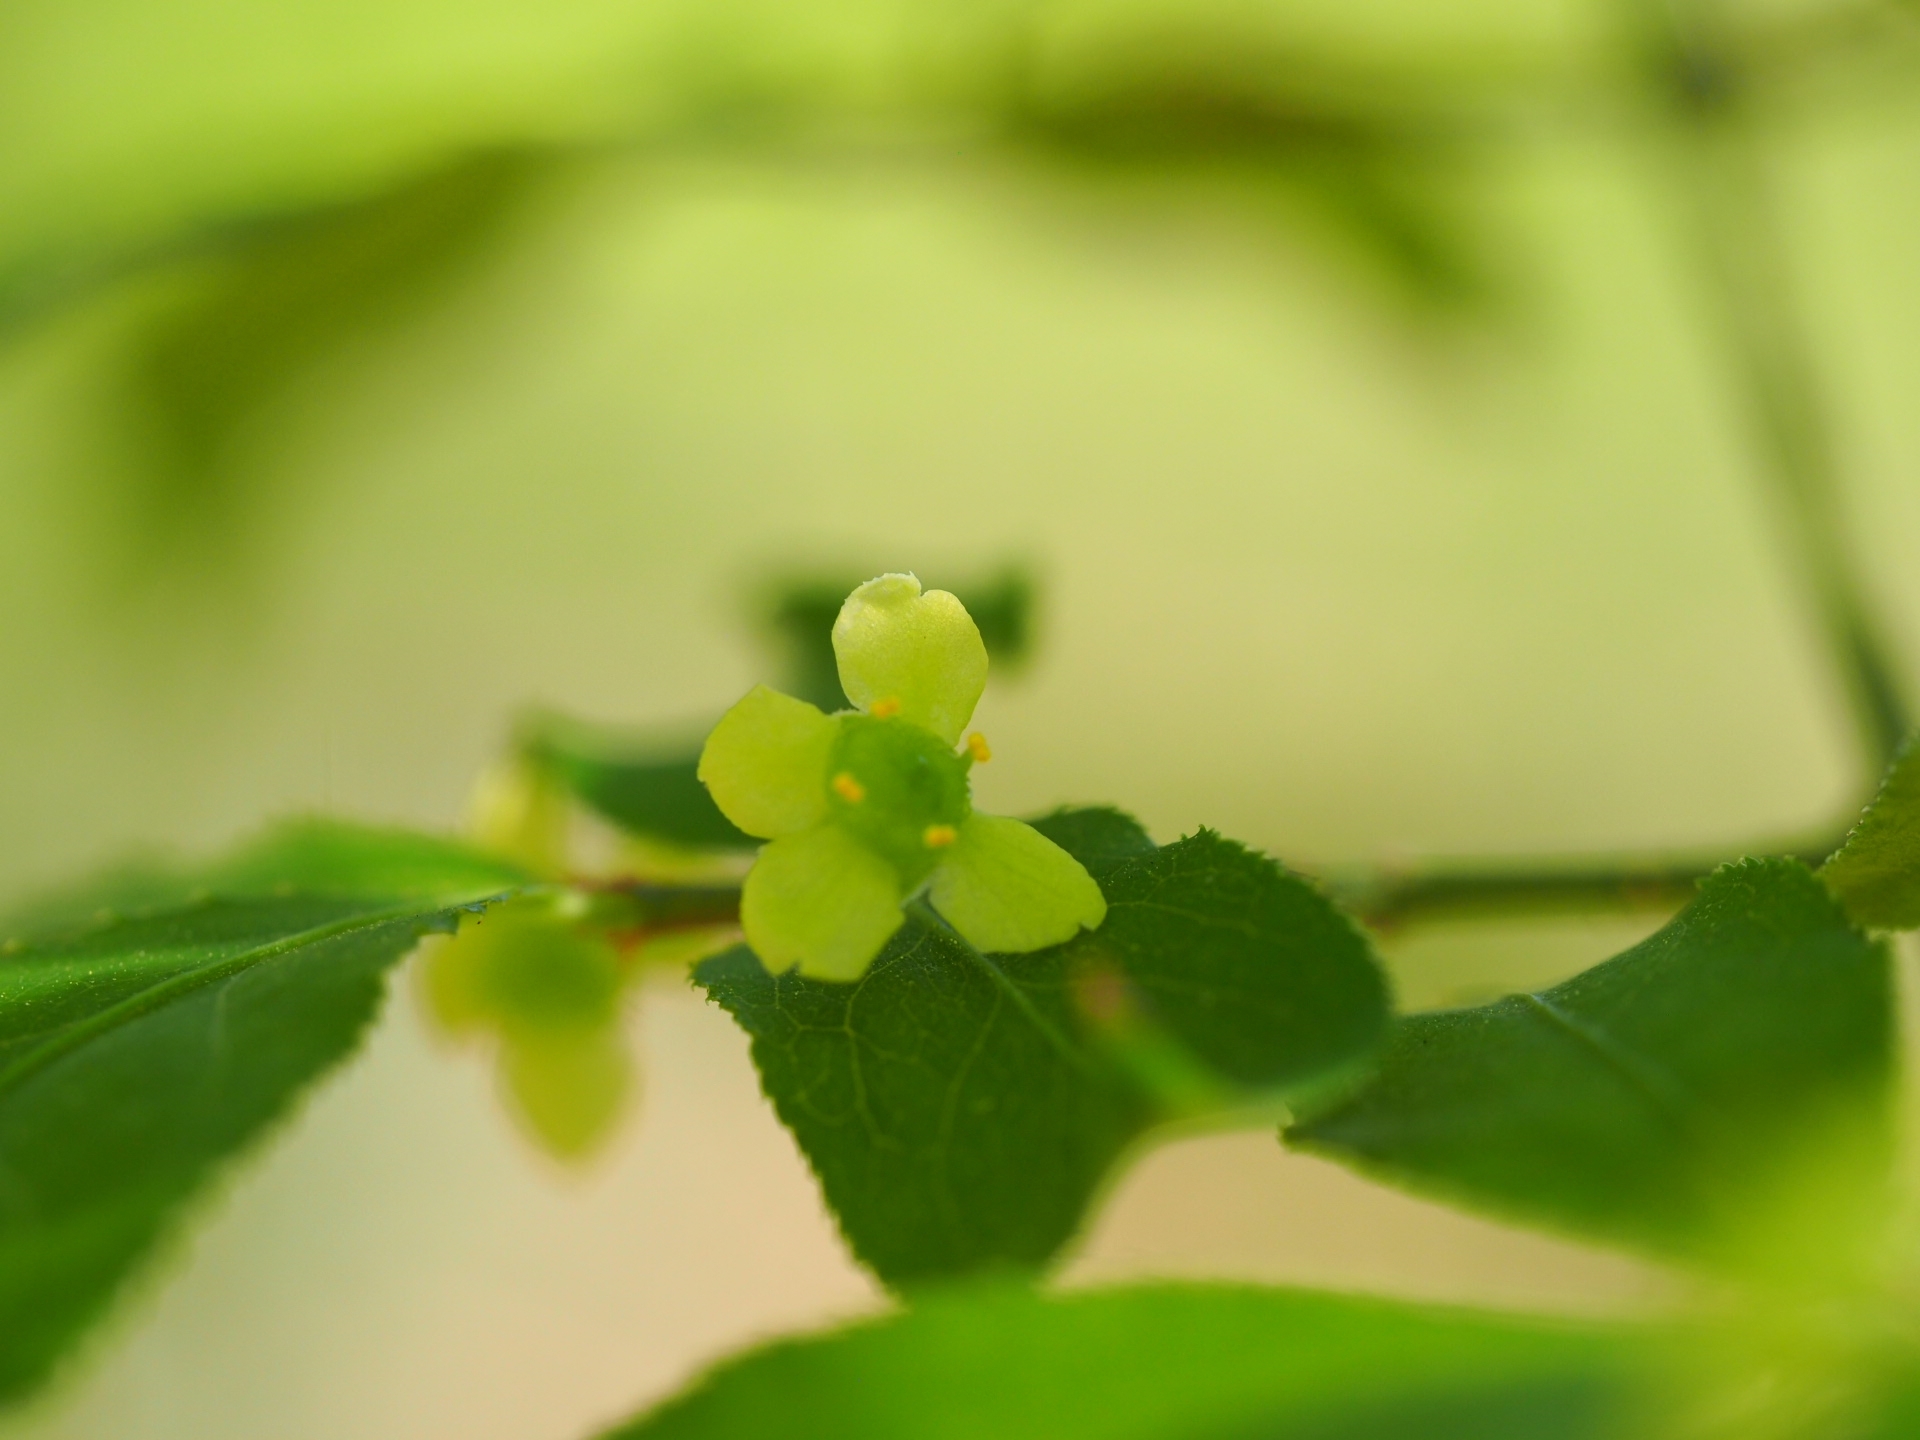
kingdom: Plantae
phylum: Tracheophyta
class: Magnoliopsida
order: Celastrales
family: Celastraceae
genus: Euonymus
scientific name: Euonymus alatus
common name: Winged euonymus
